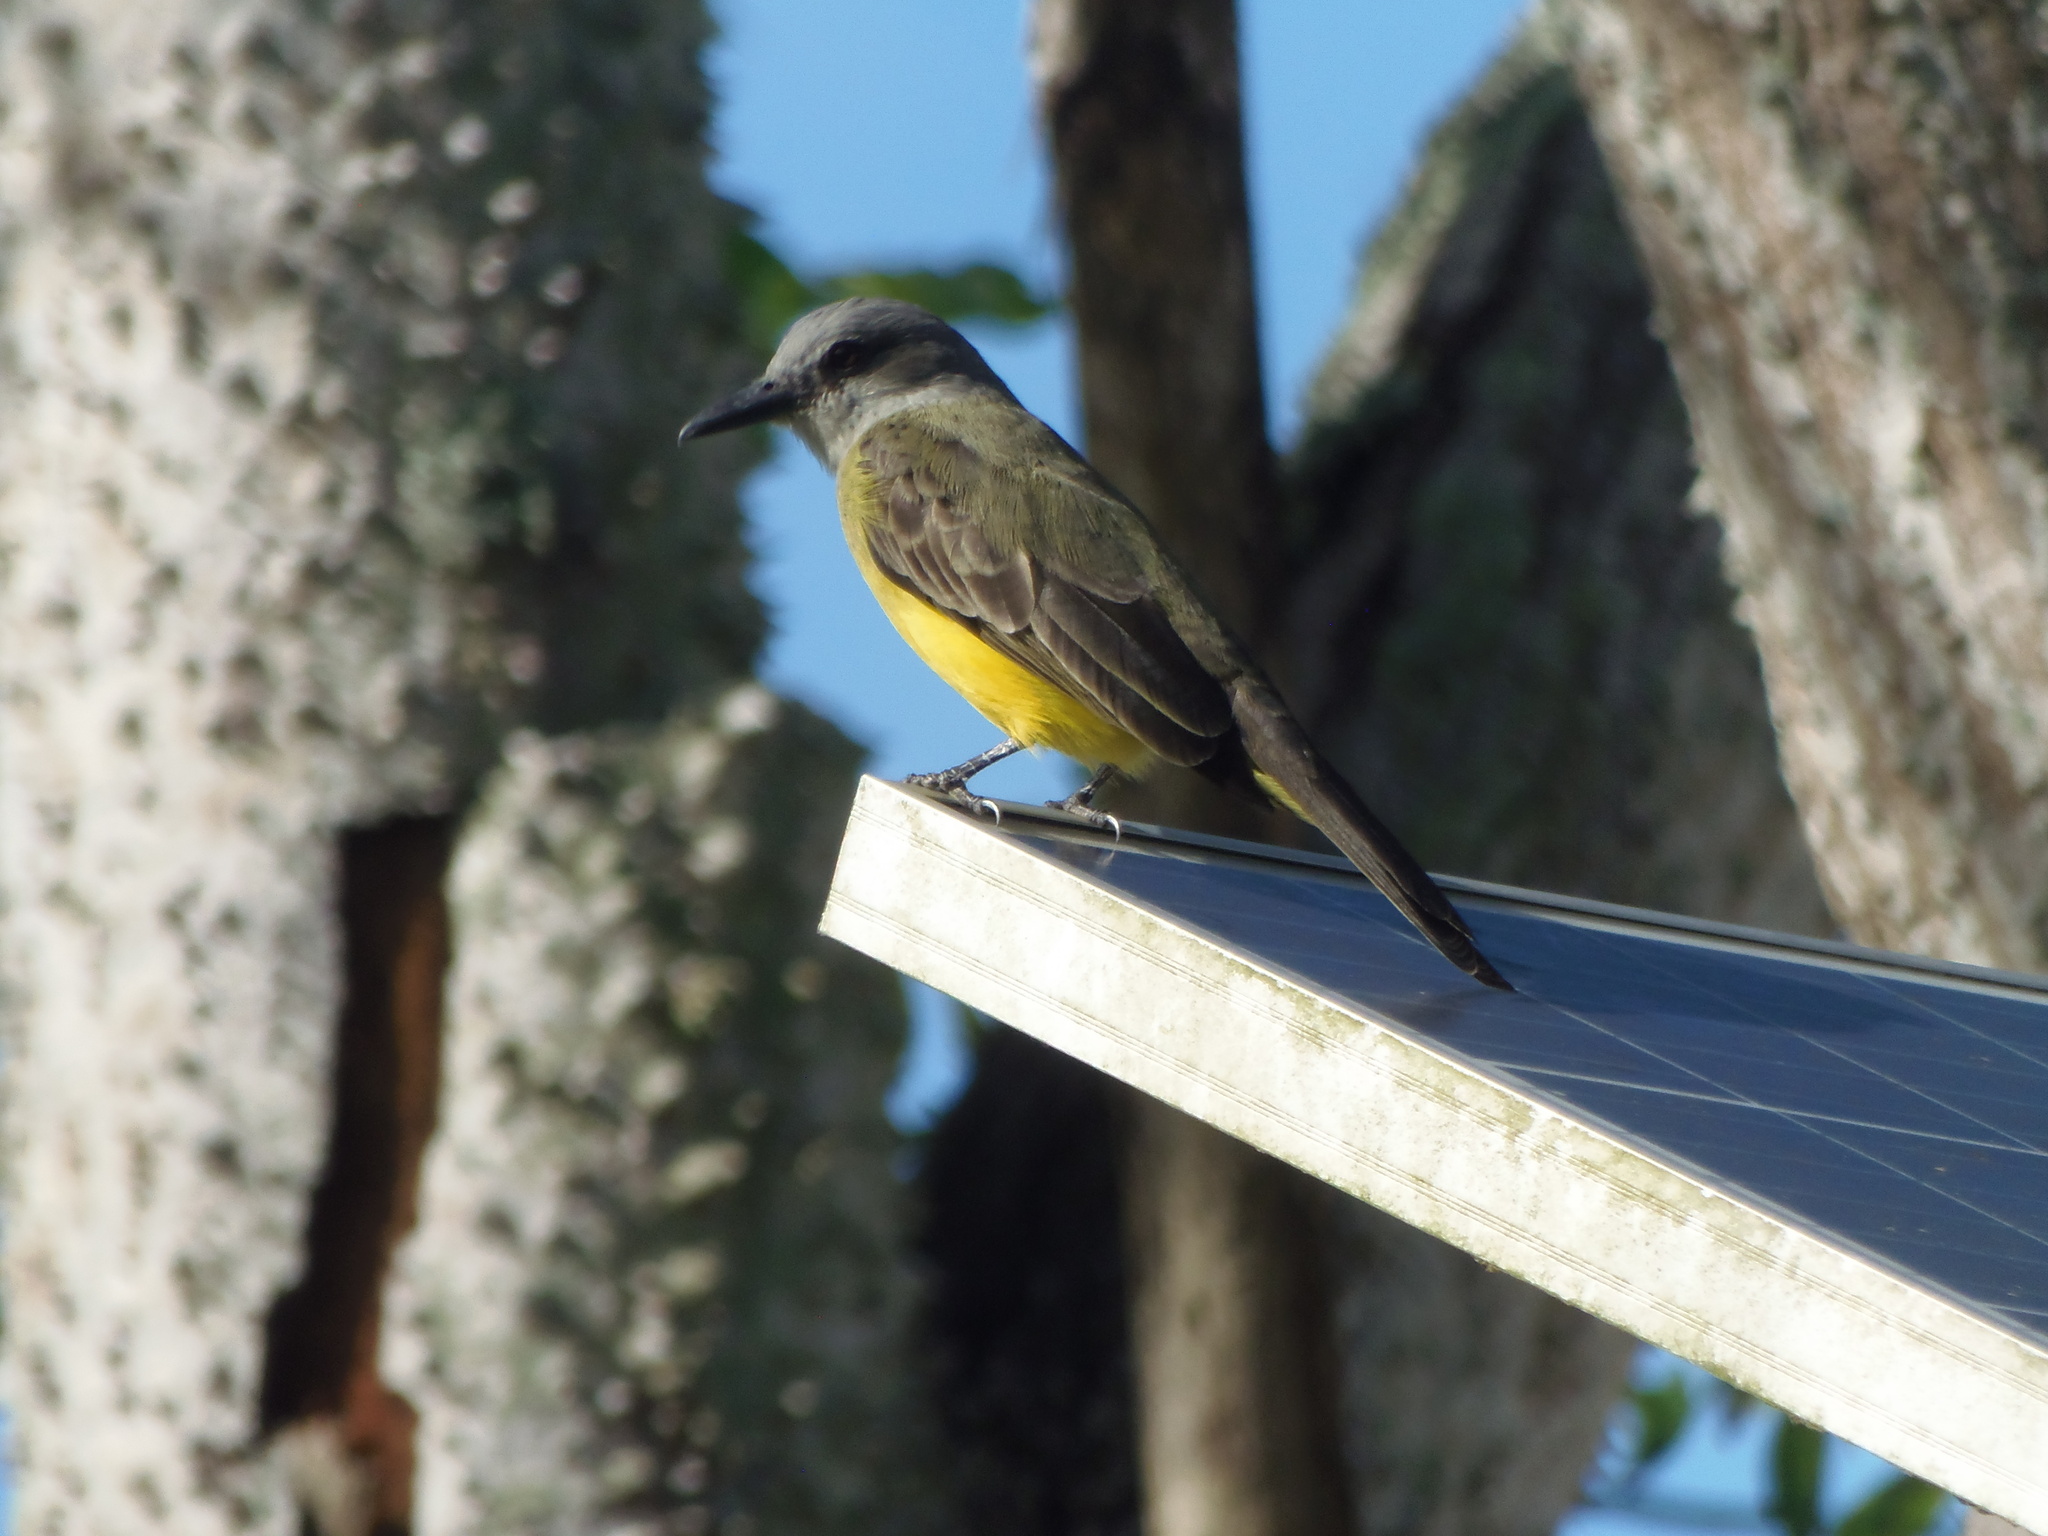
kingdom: Animalia
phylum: Chordata
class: Aves
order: Passeriformes
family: Tyrannidae
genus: Tyrannus
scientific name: Tyrannus melancholicus
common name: Tropical kingbird
